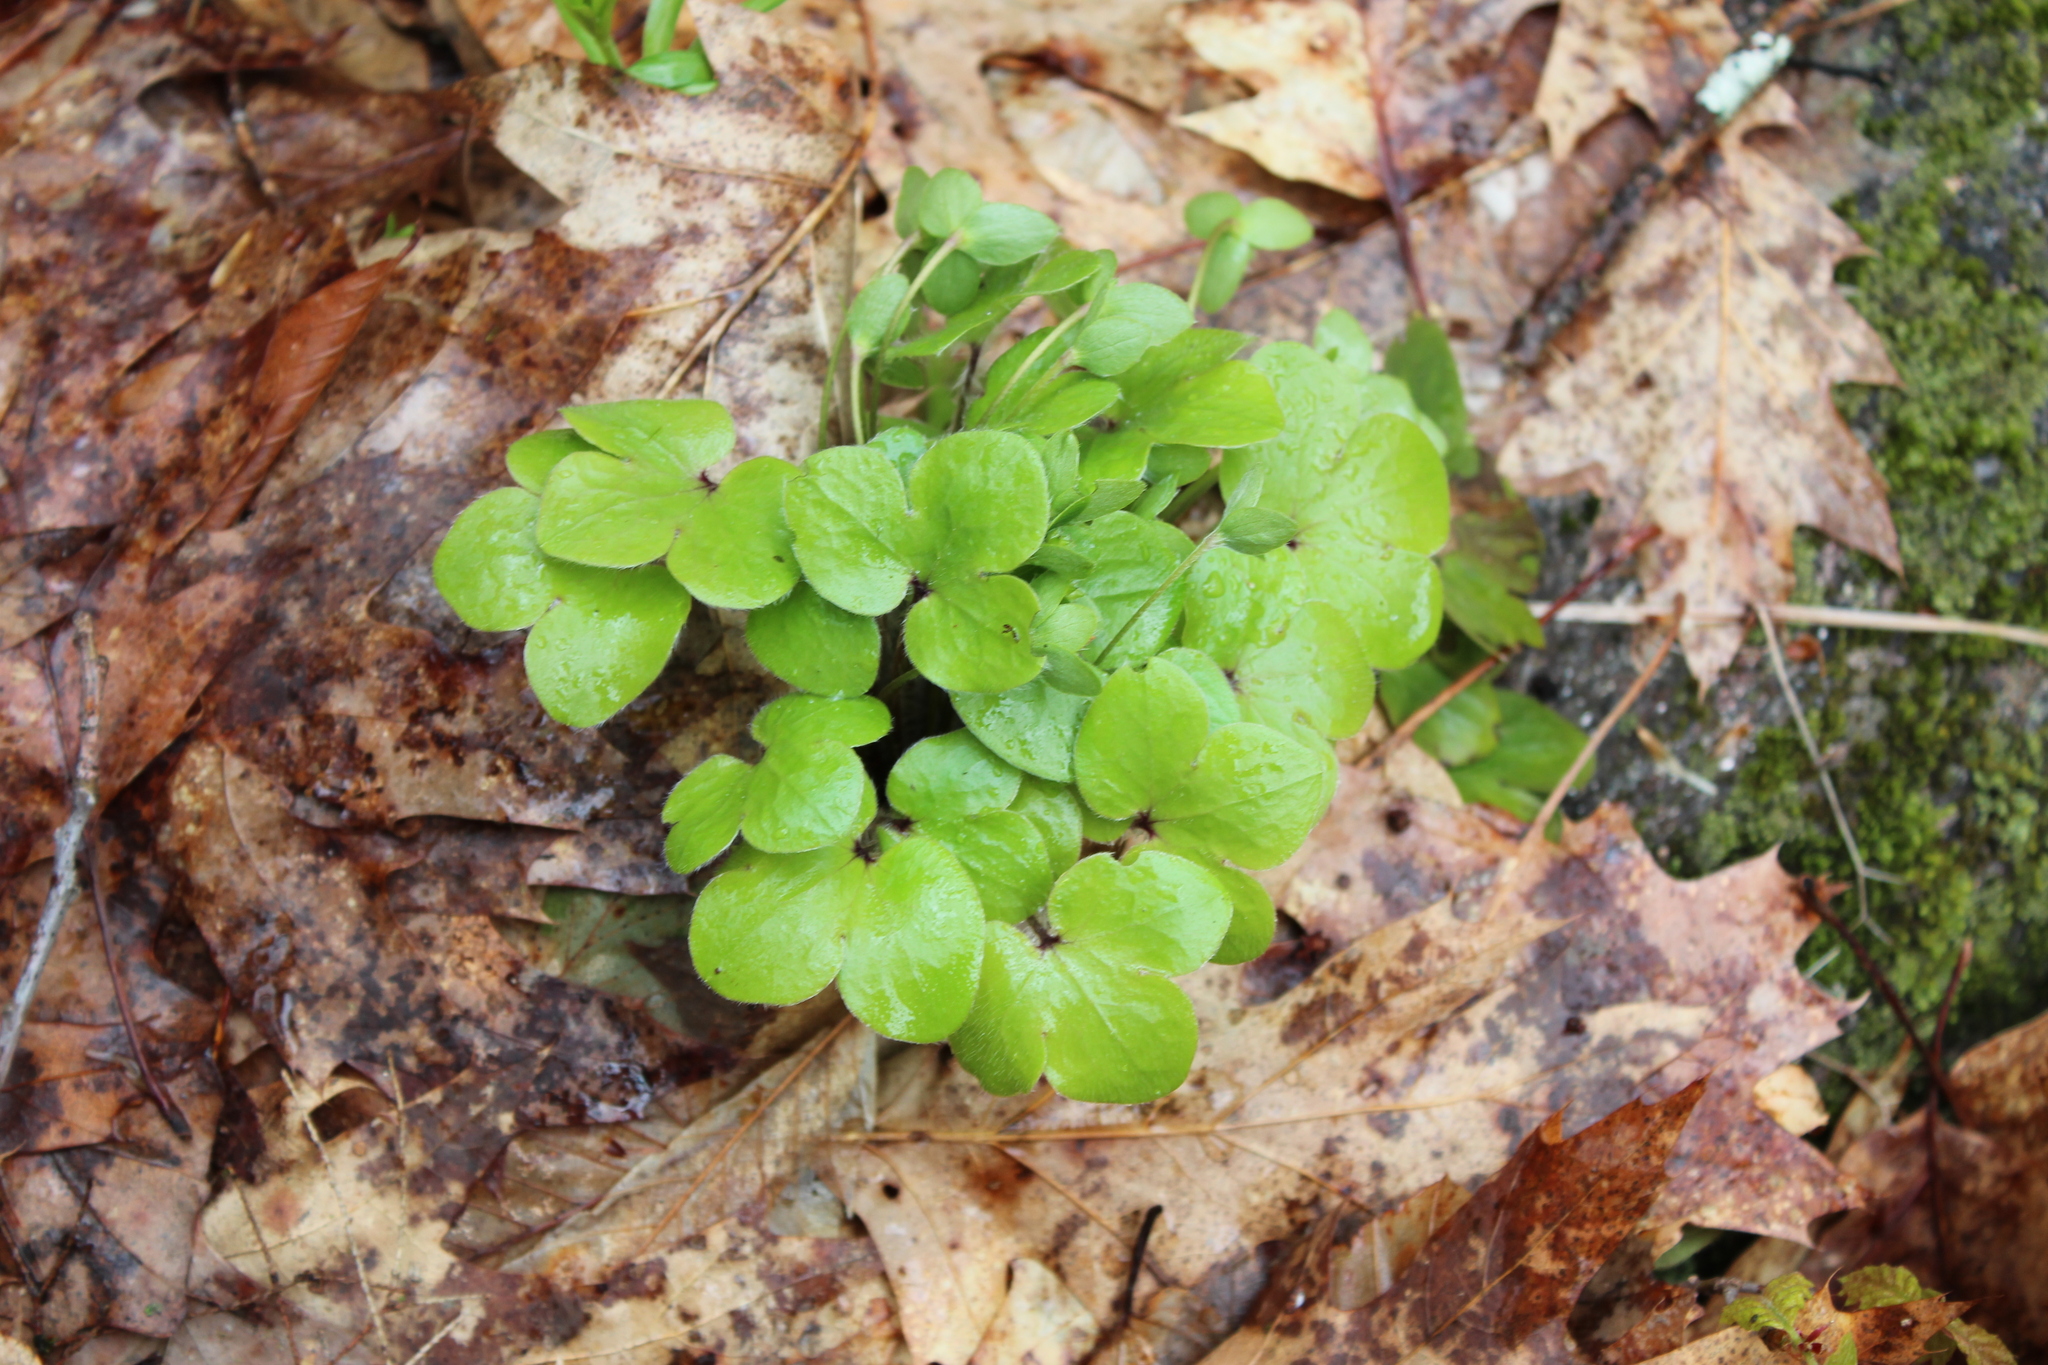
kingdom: Plantae
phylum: Tracheophyta
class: Magnoliopsida
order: Ranunculales
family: Ranunculaceae
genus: Hepatica
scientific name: Hepatica americana
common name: American hepatica
